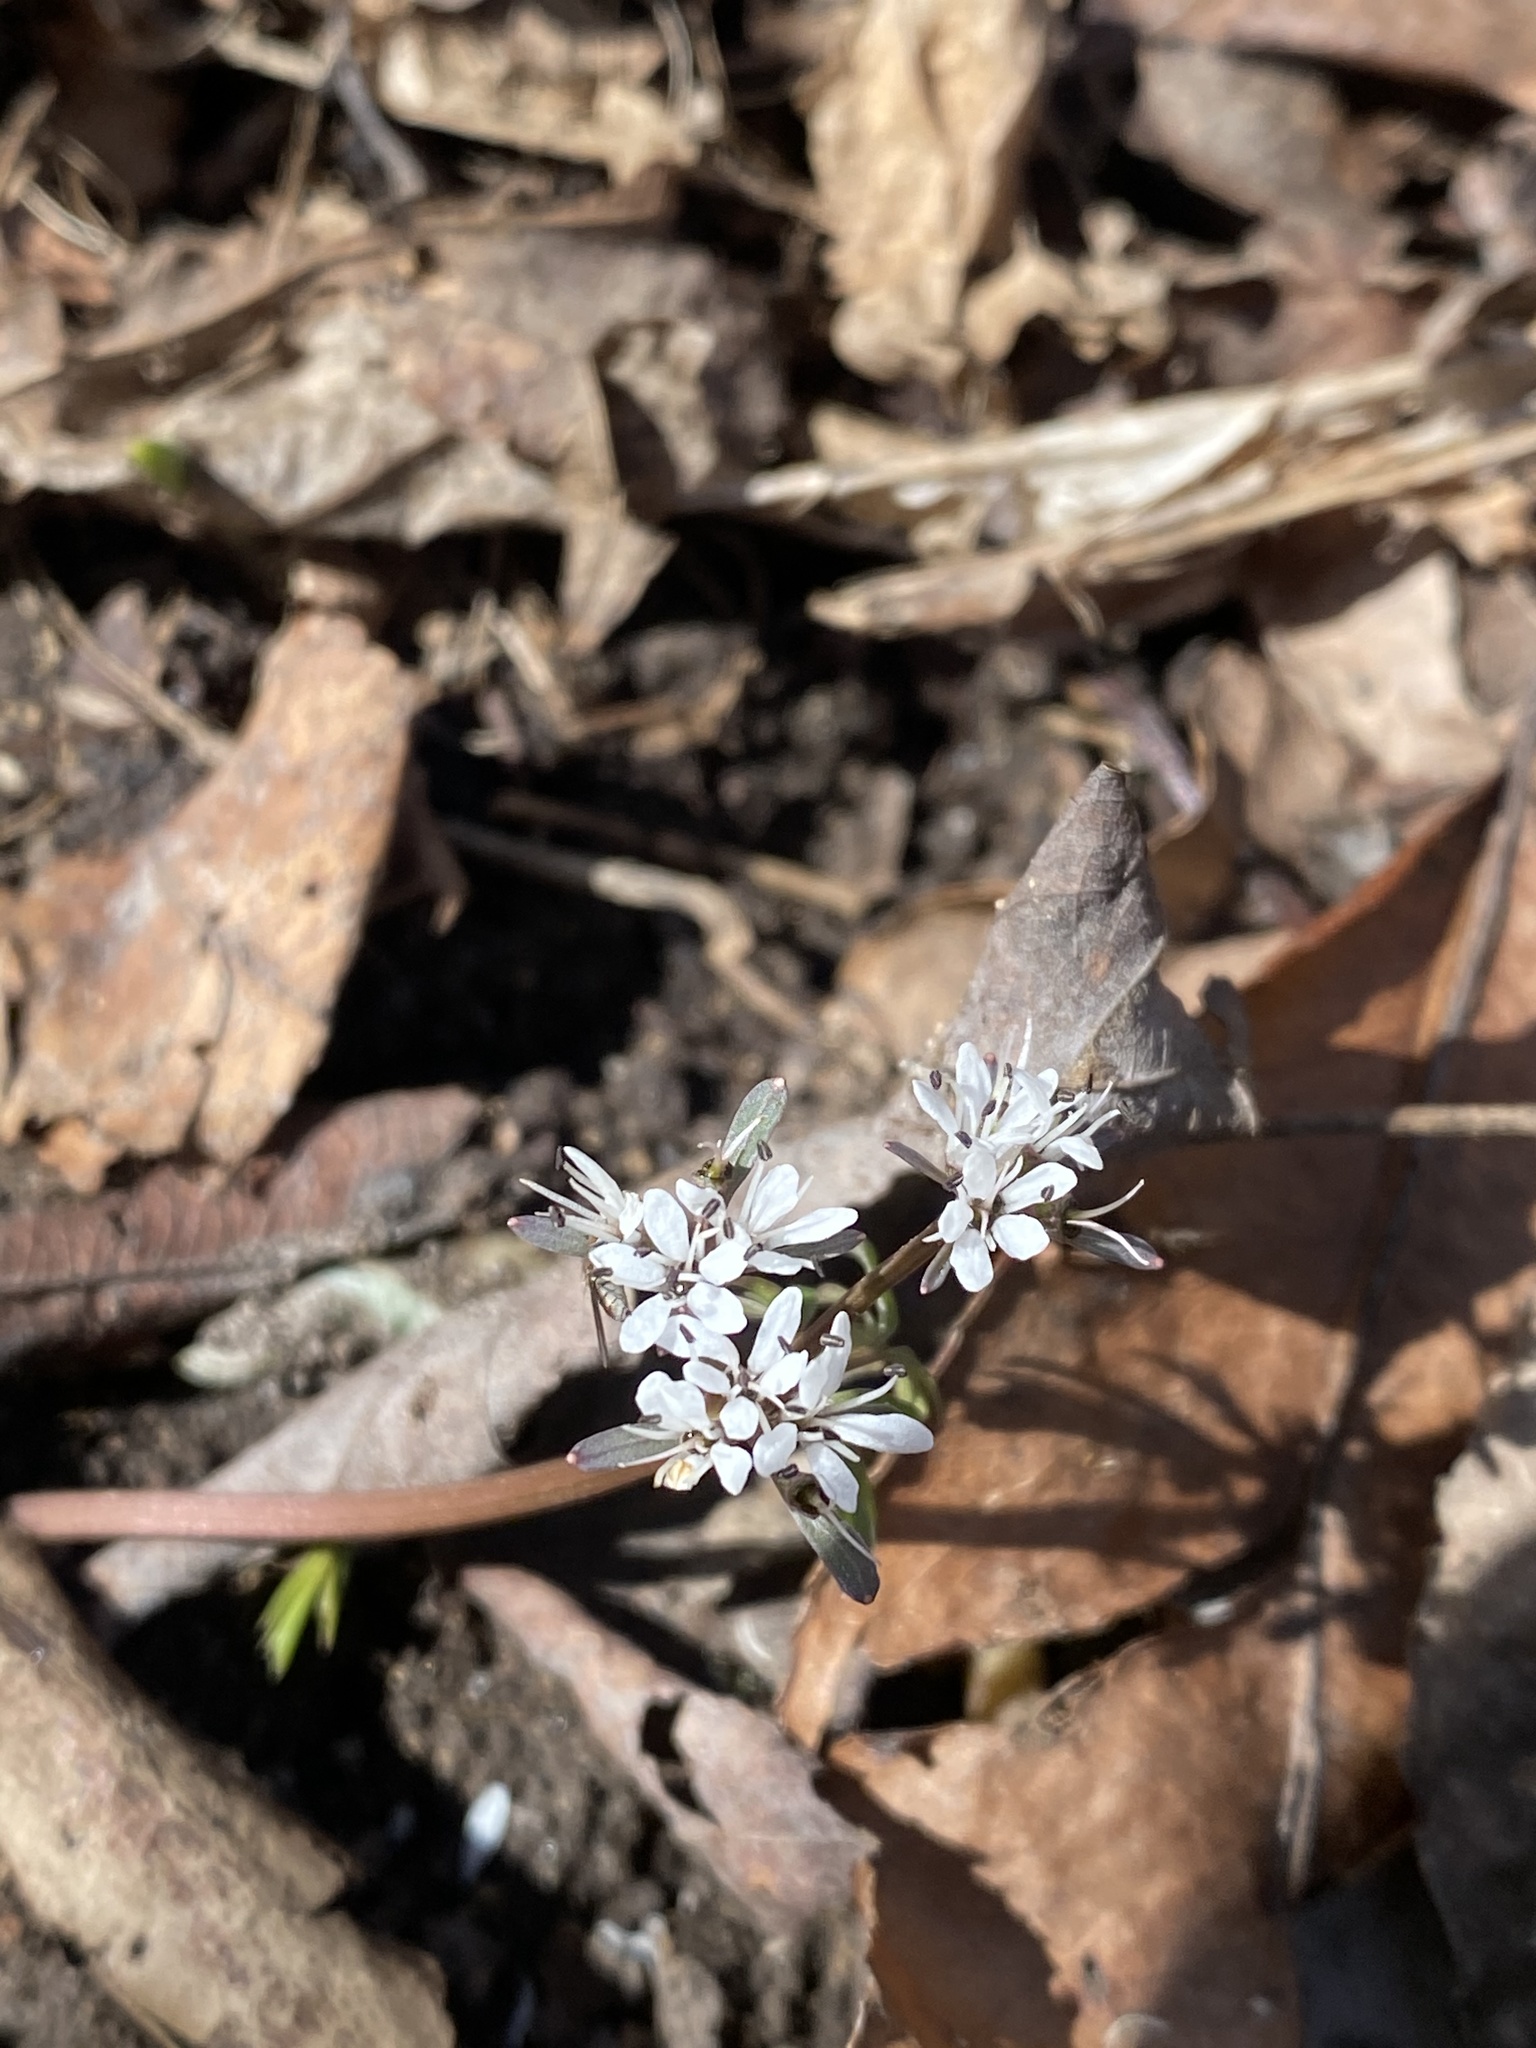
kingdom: Plantae
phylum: Tracheophyta
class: Magnoliopsida
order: Apiales
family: Apiaceae
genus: Erigenia
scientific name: Erigenia bulbosa
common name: Pepper-and-salt
